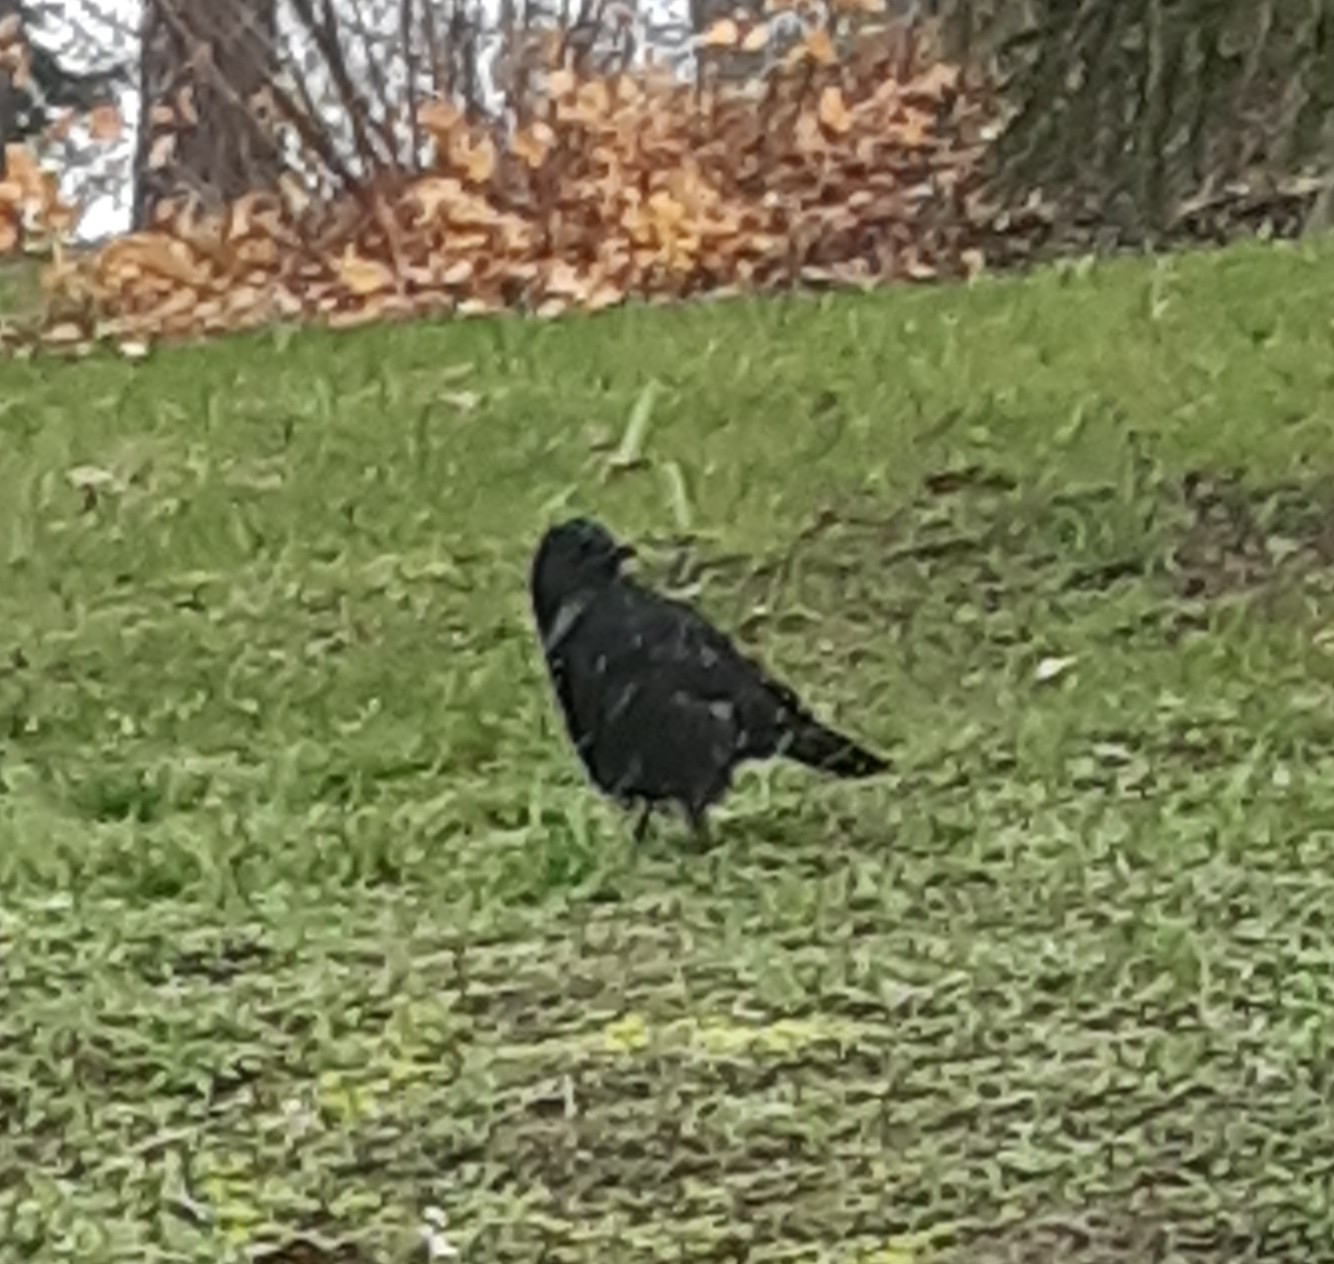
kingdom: Animalia
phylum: Chordata
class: Aves
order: Passeriformes
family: Corvidae
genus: Corvus
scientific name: Corvus corone
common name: Carrion crow
